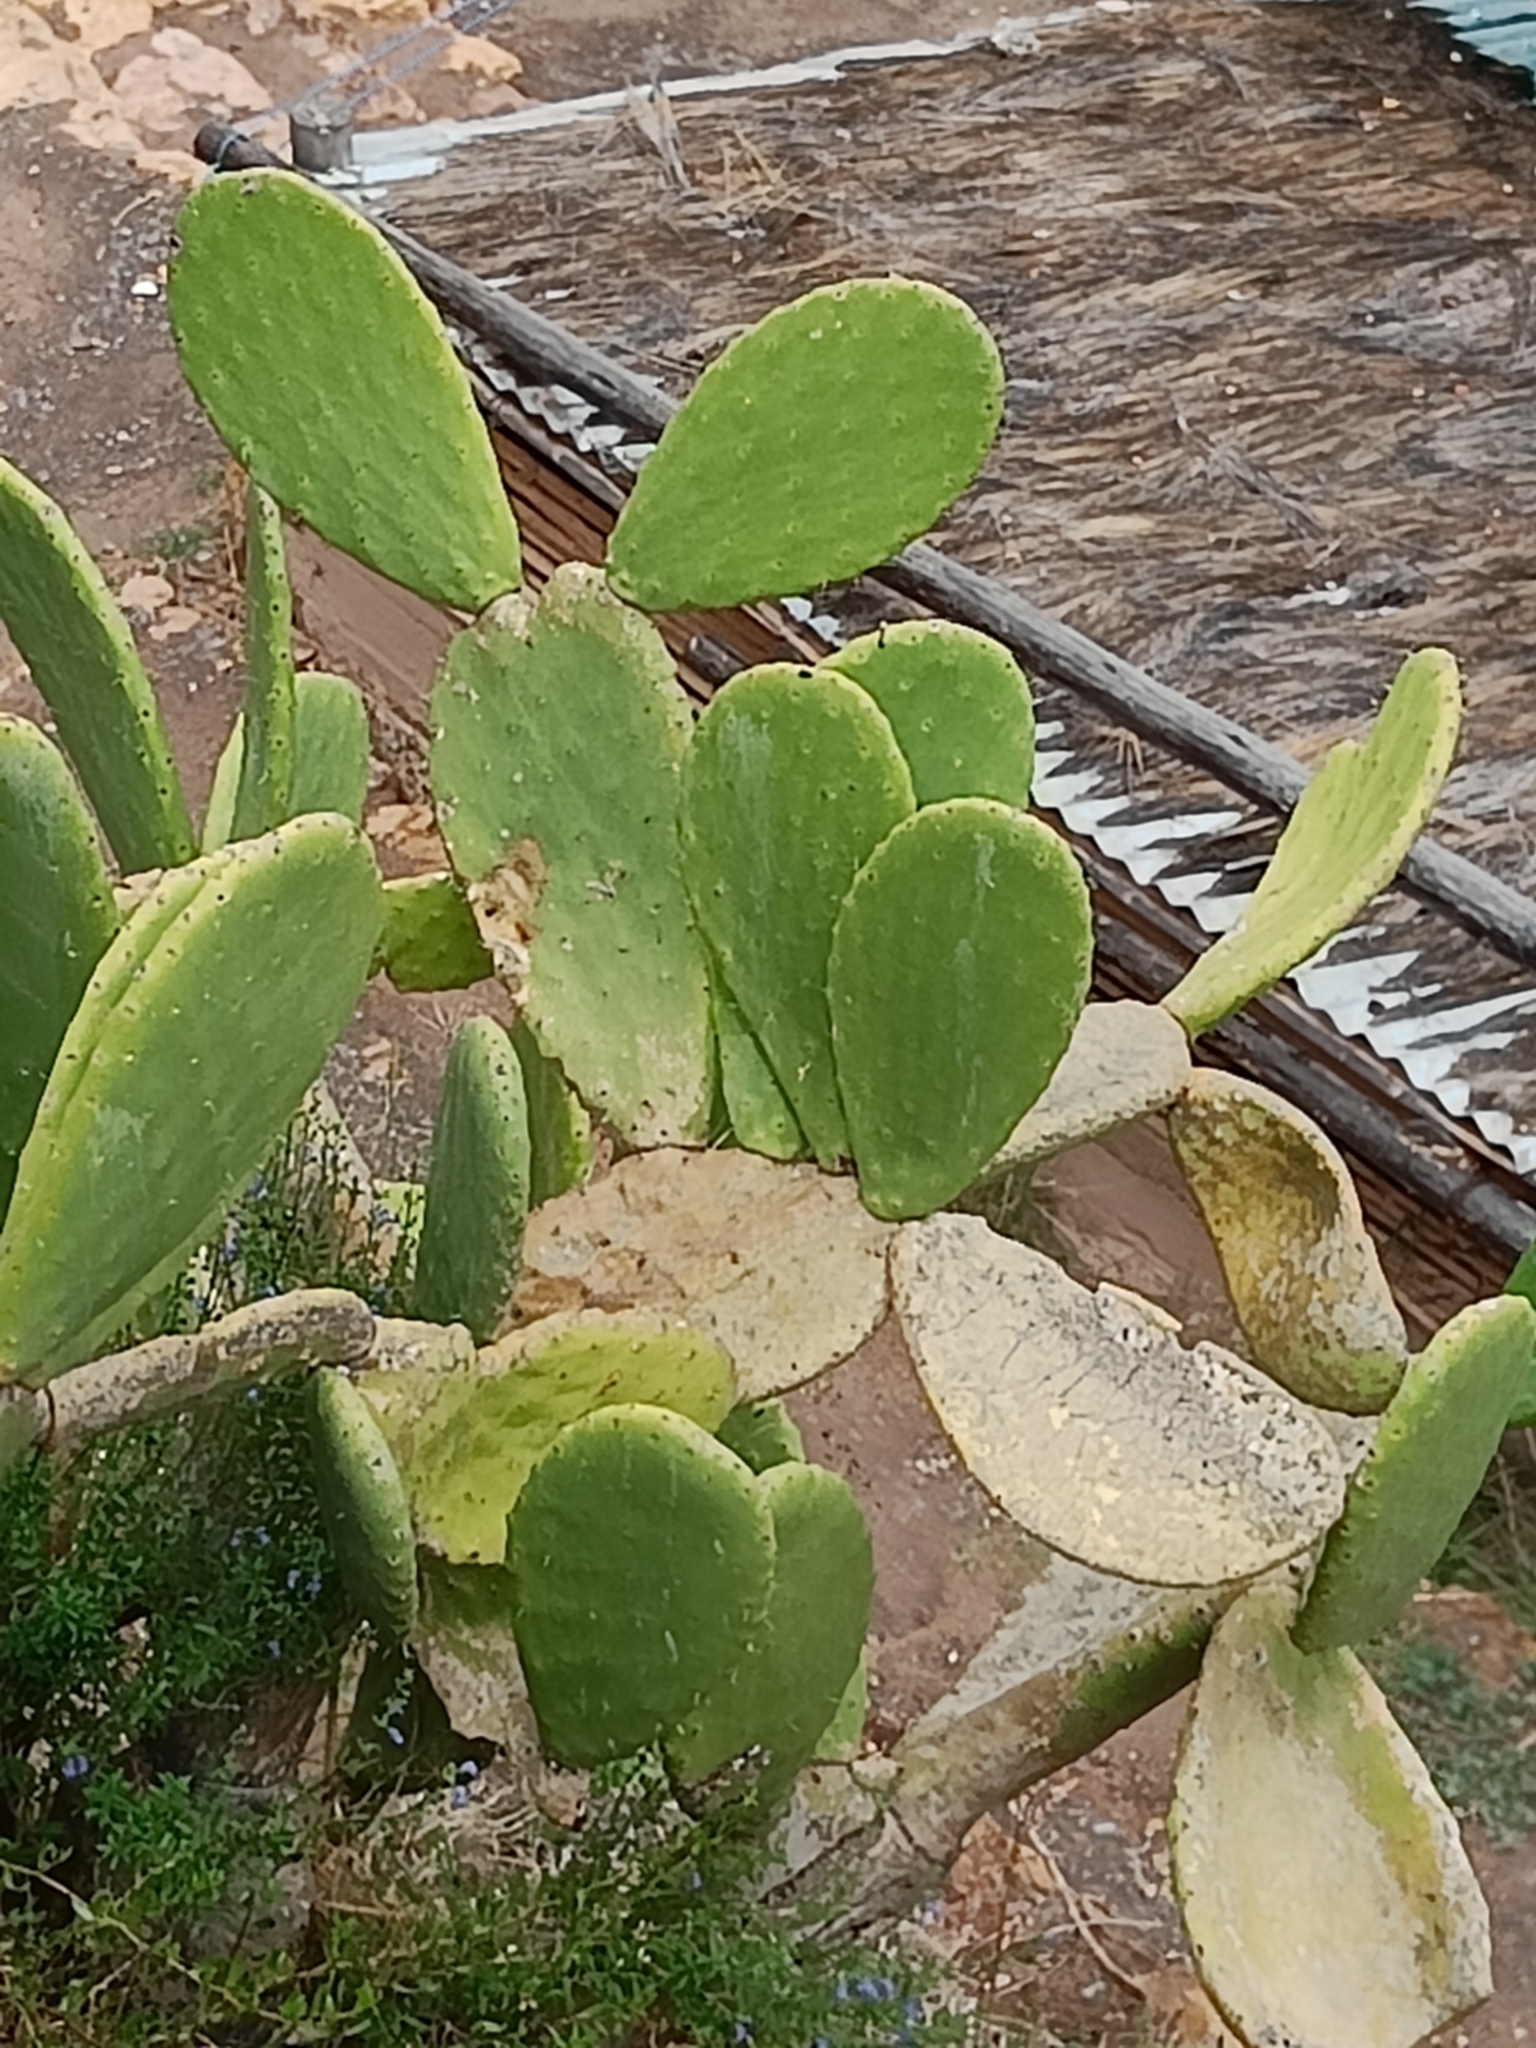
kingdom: Plantae
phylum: Tracheophyta
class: Magnoliopsida
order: Caryophyllales
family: Cactaceae
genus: Opuntia
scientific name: Opuntia ficus-indica
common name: Barbary fig
